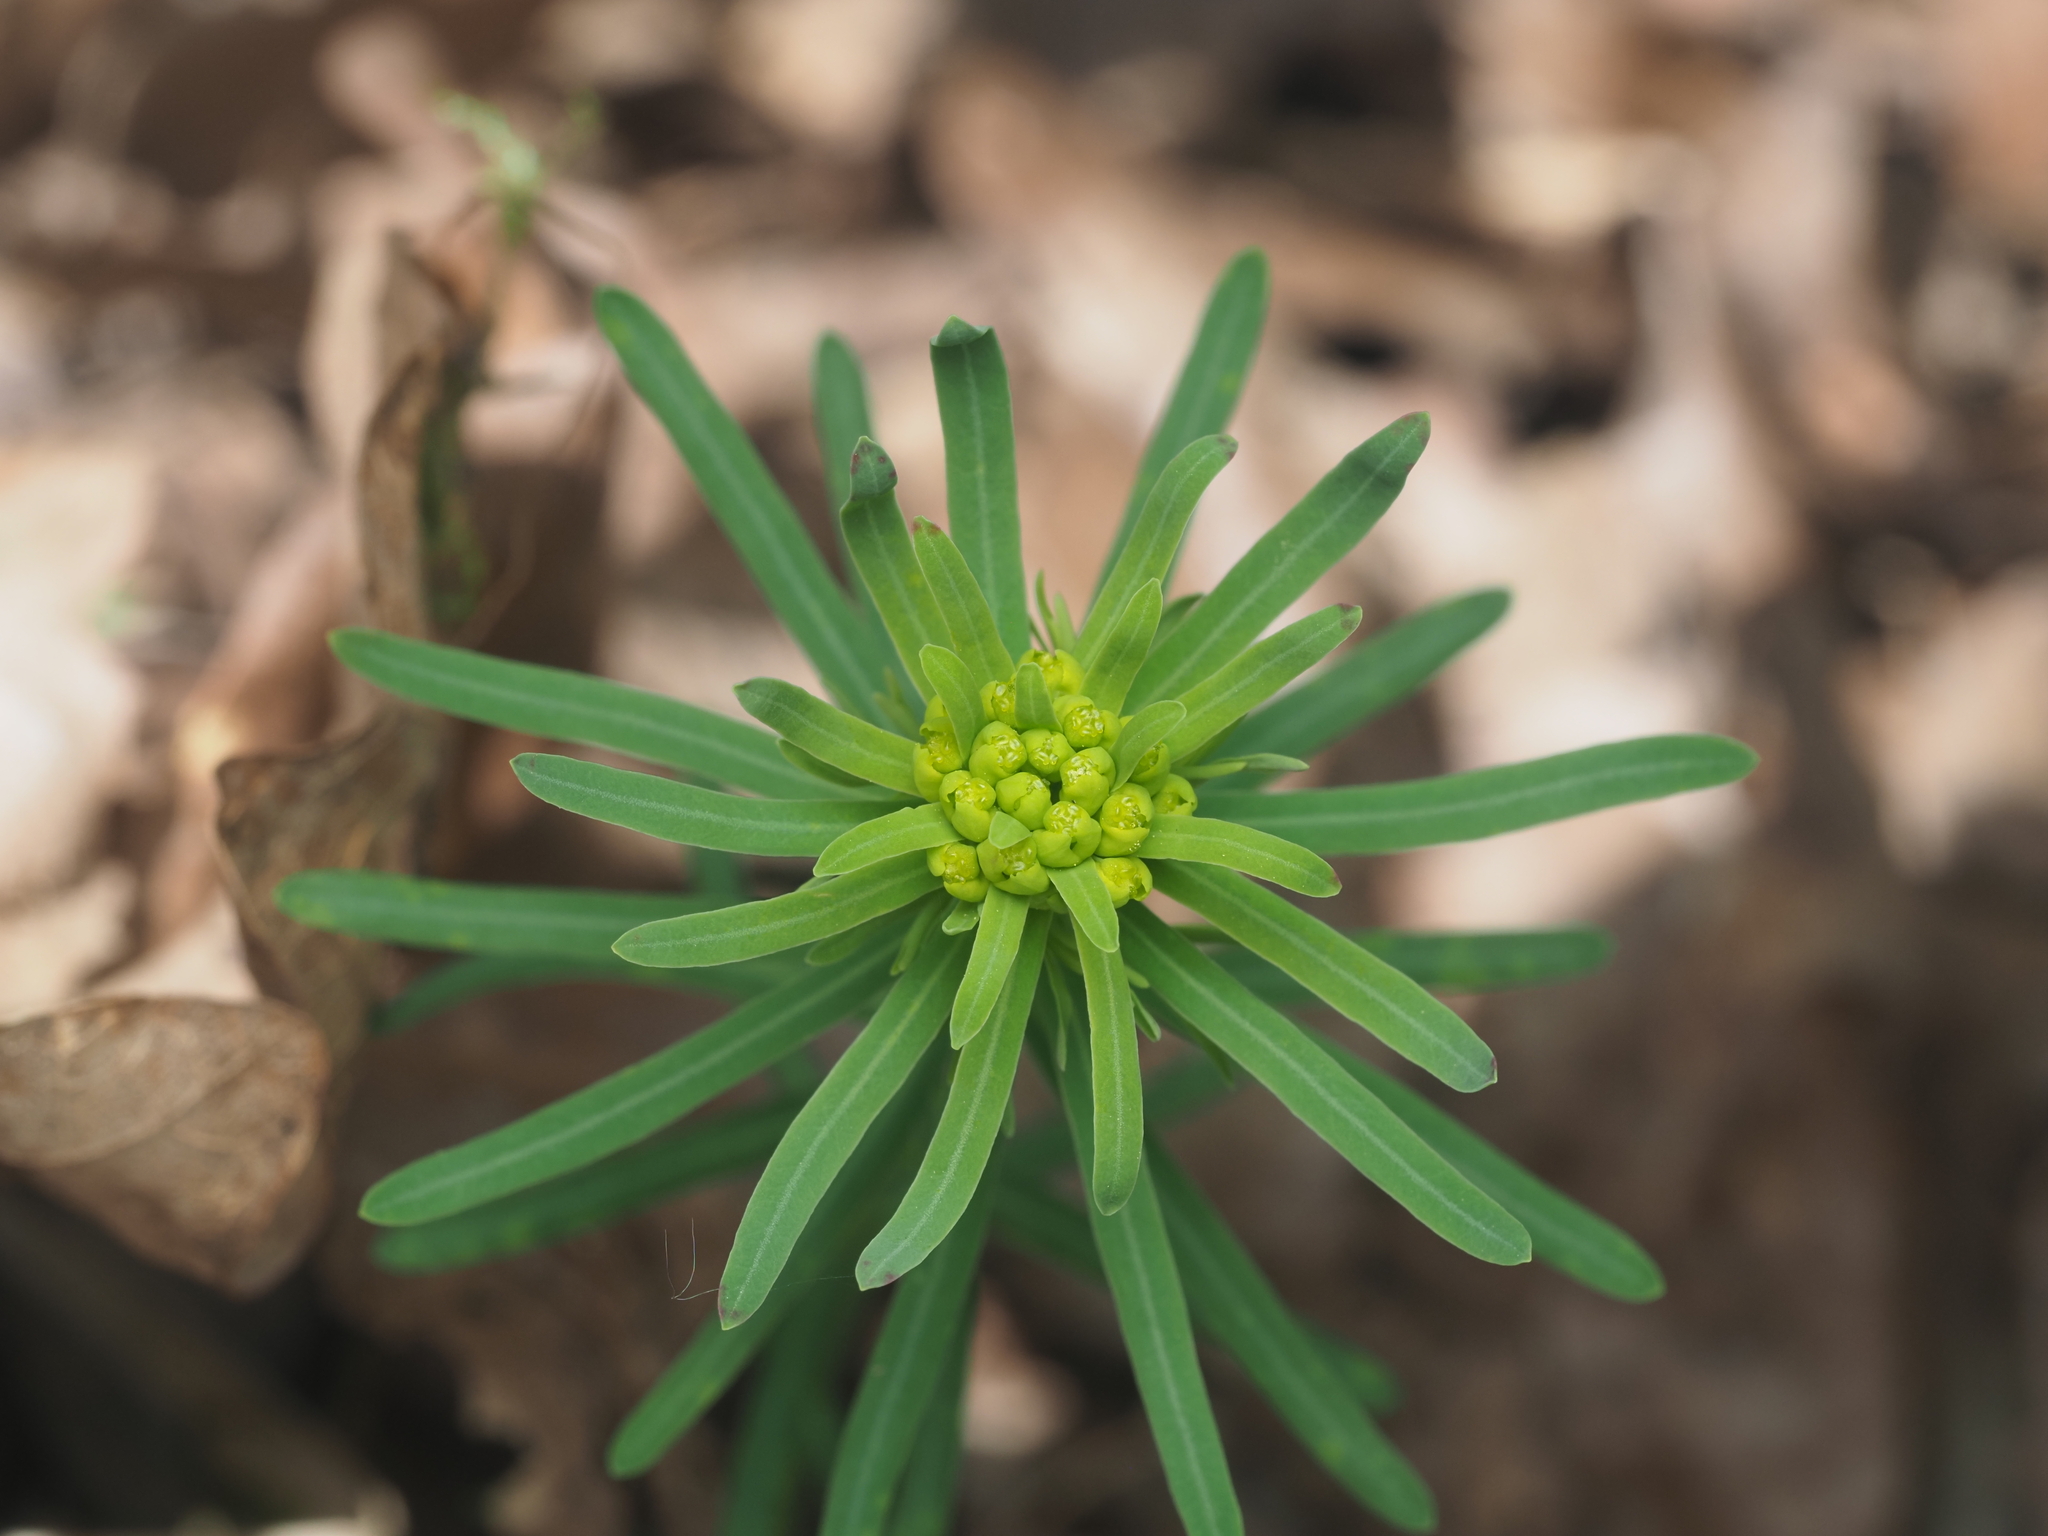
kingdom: Plantae
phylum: Tracheophyta
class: Magnoliopsida
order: Malpighiales
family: Euphorbiaceae
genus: Euphorbia
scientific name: Euphorbia cyparissias
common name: Cypress spurge
